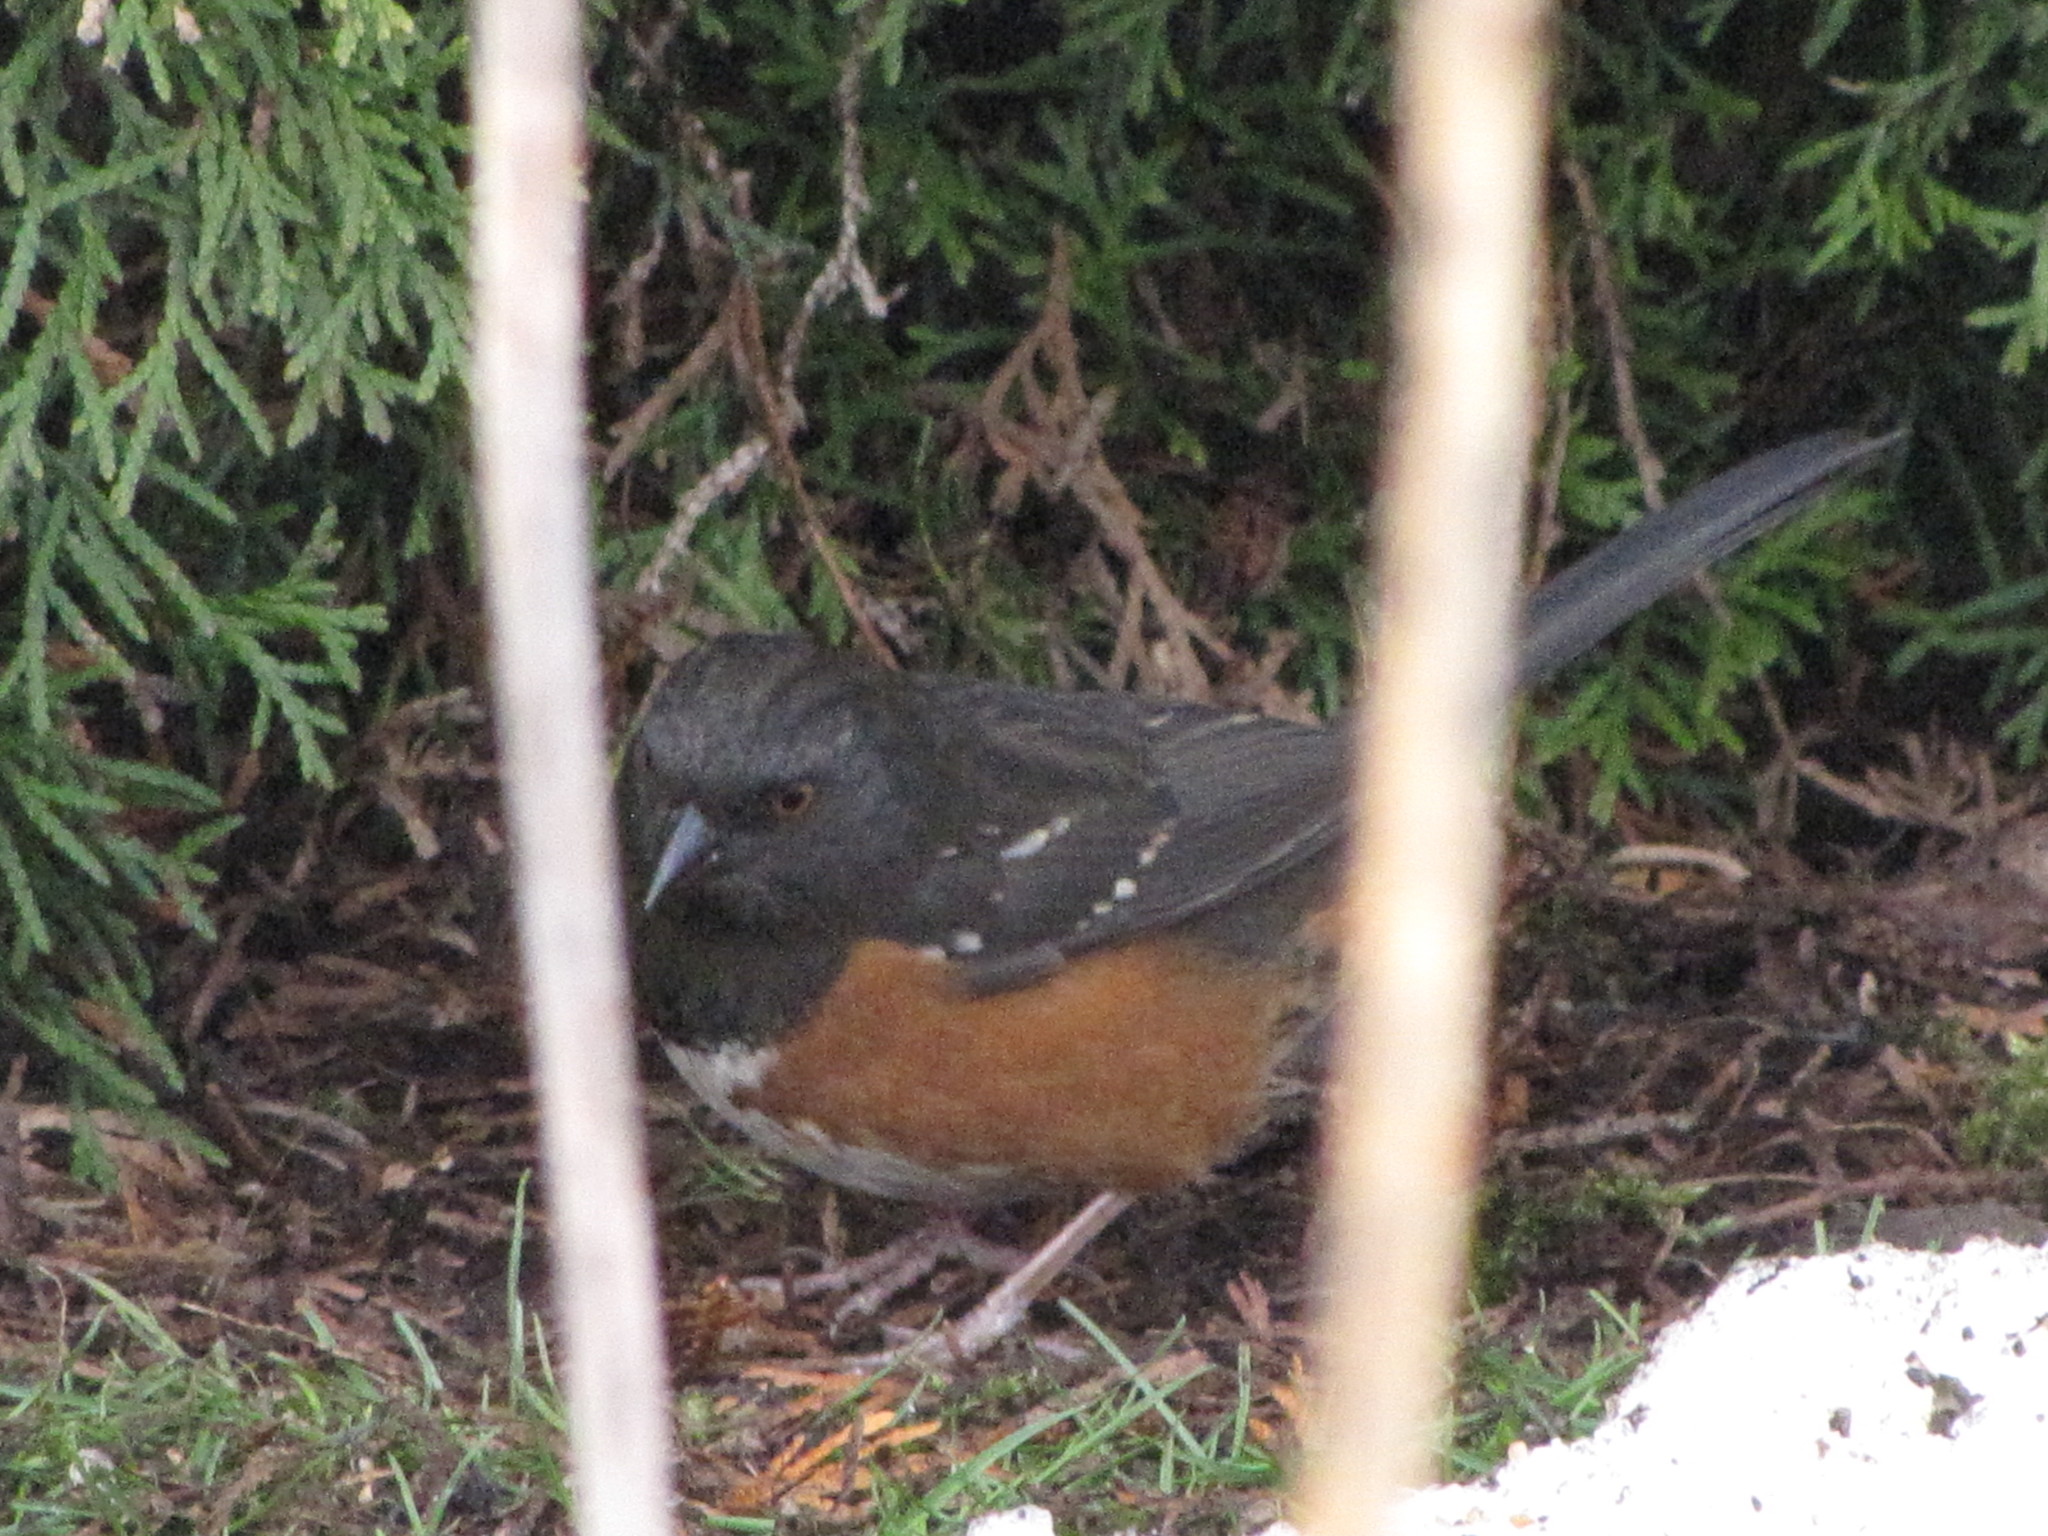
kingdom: Animalia
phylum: Chordata
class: Aves
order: Passeriformes
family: Passerellidae
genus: Pipilo
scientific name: Pipilo maculatus
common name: Spotted towhee
